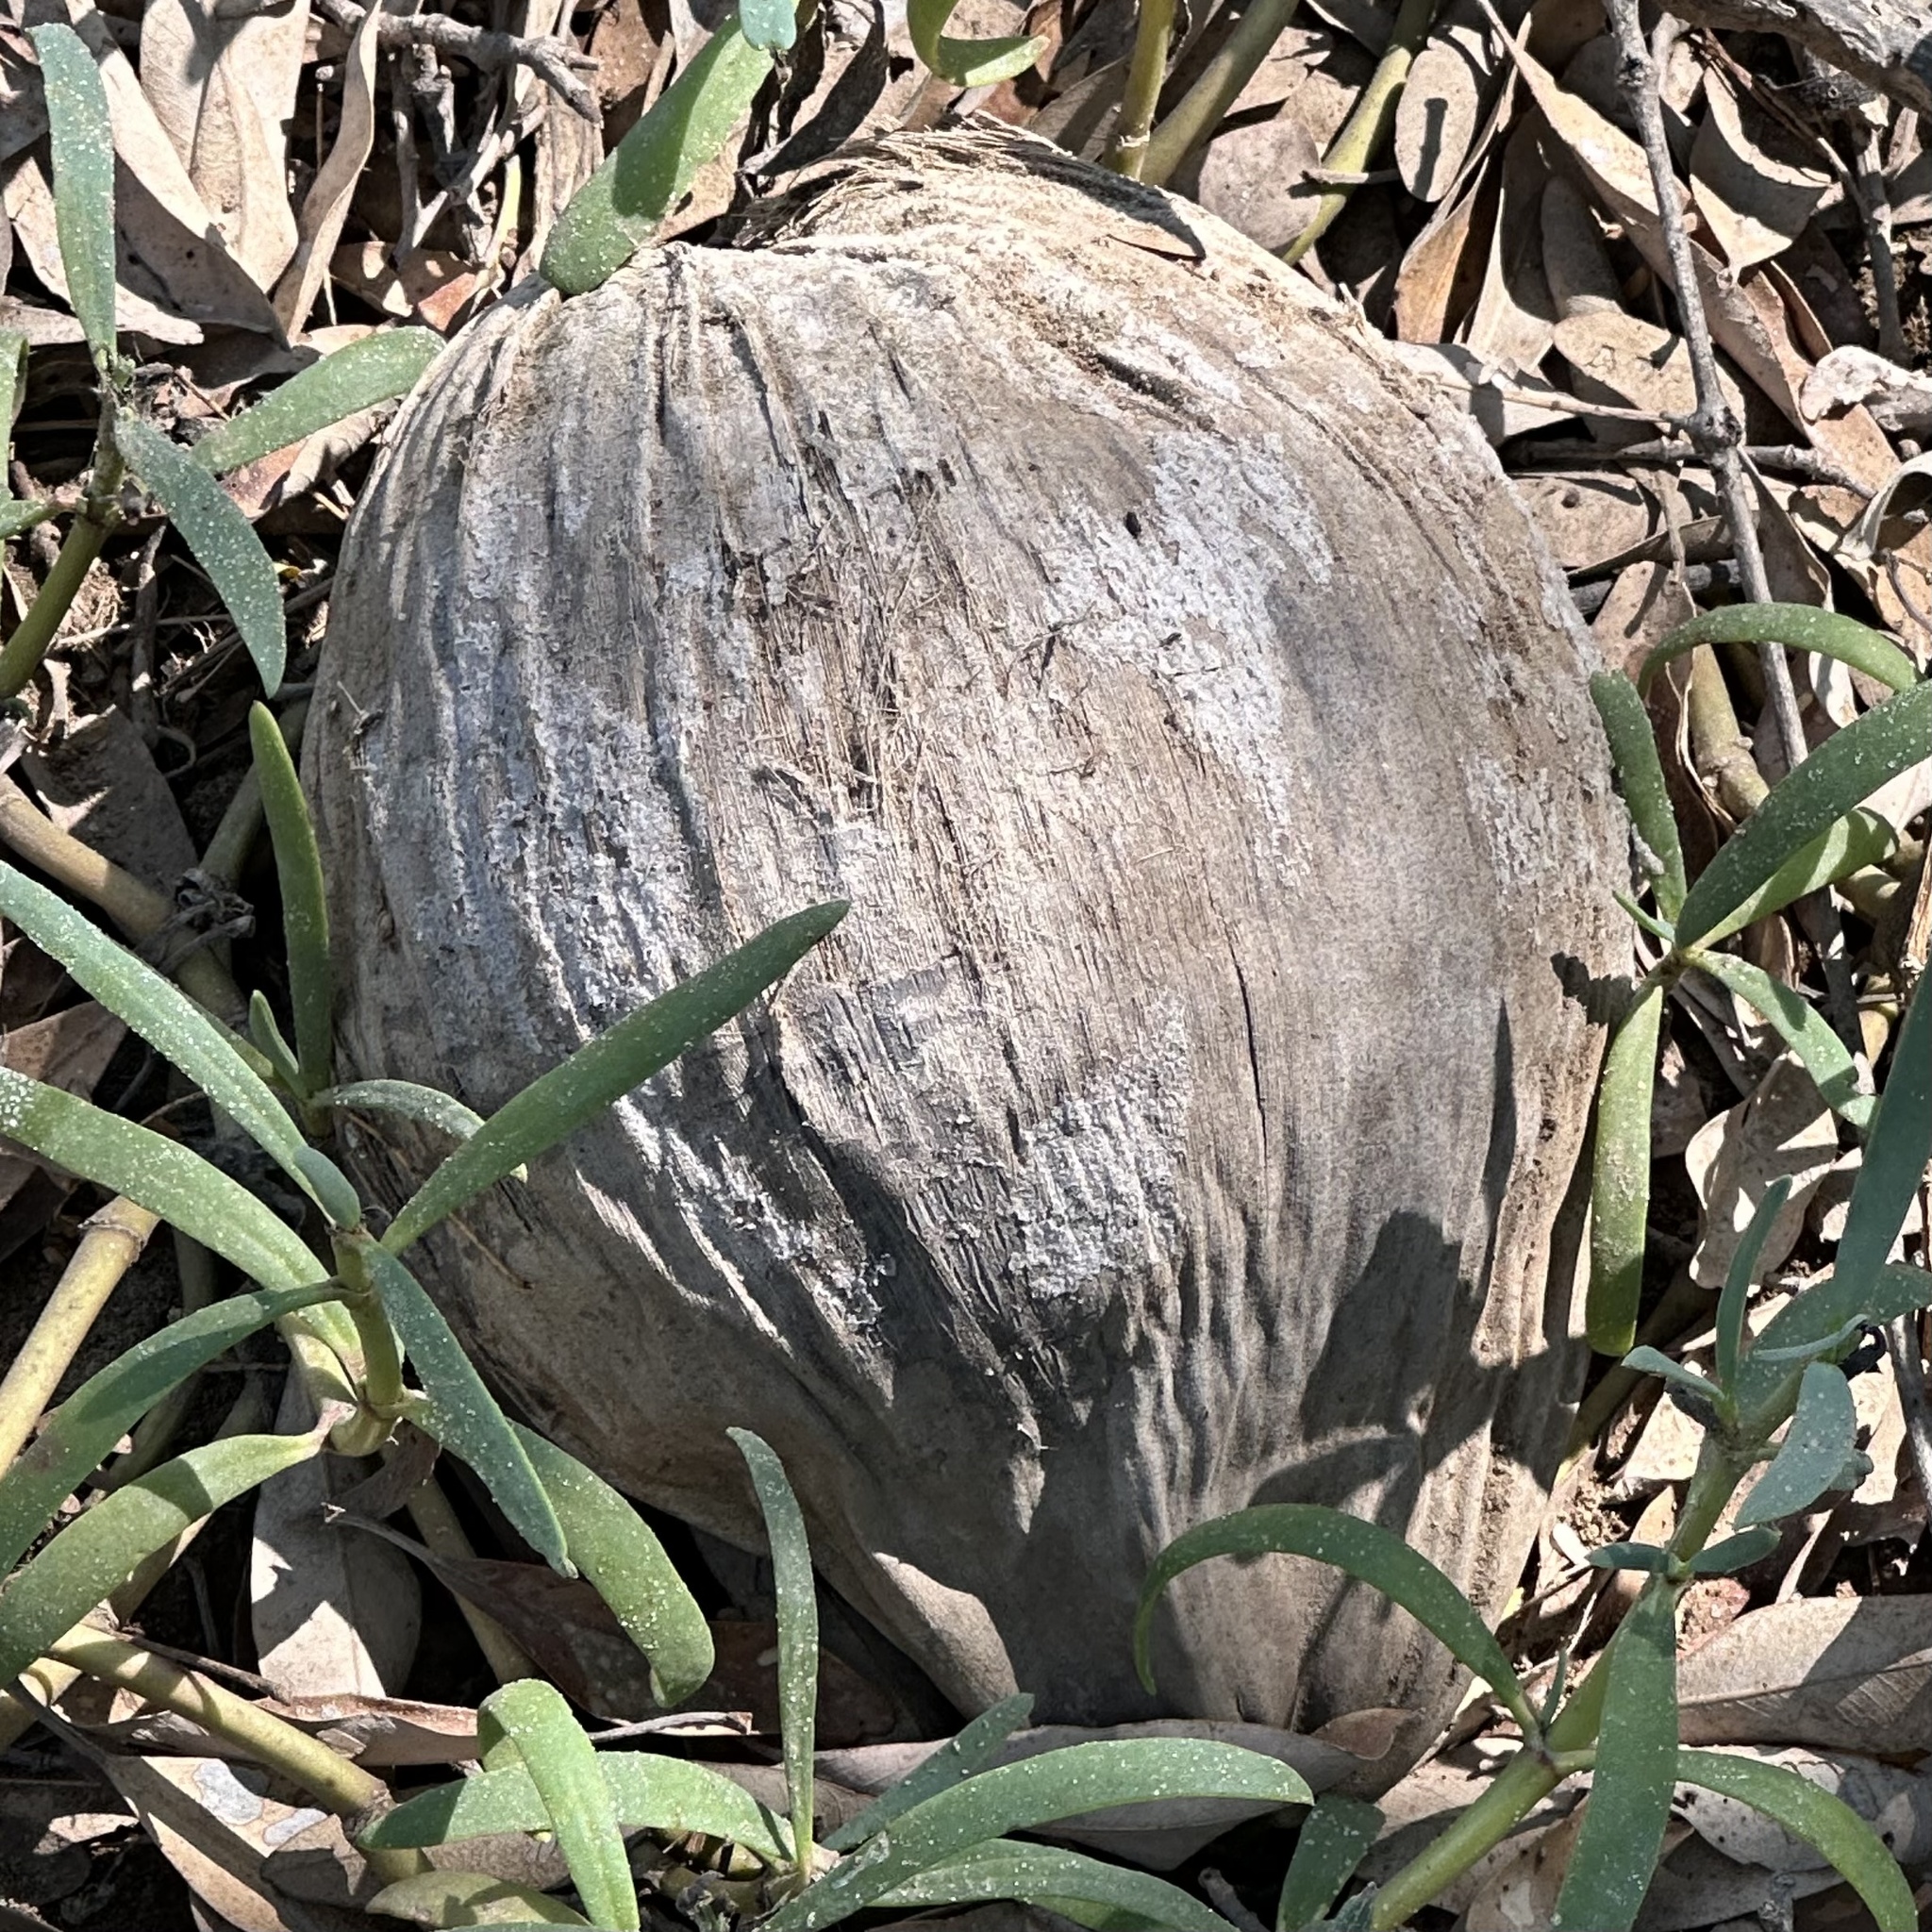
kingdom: Plantae
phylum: Tracheophyta
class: Liliopsida
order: Arecales
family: Arecaceae
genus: Cocos
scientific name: Cocos nucifera
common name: Coconut palm
